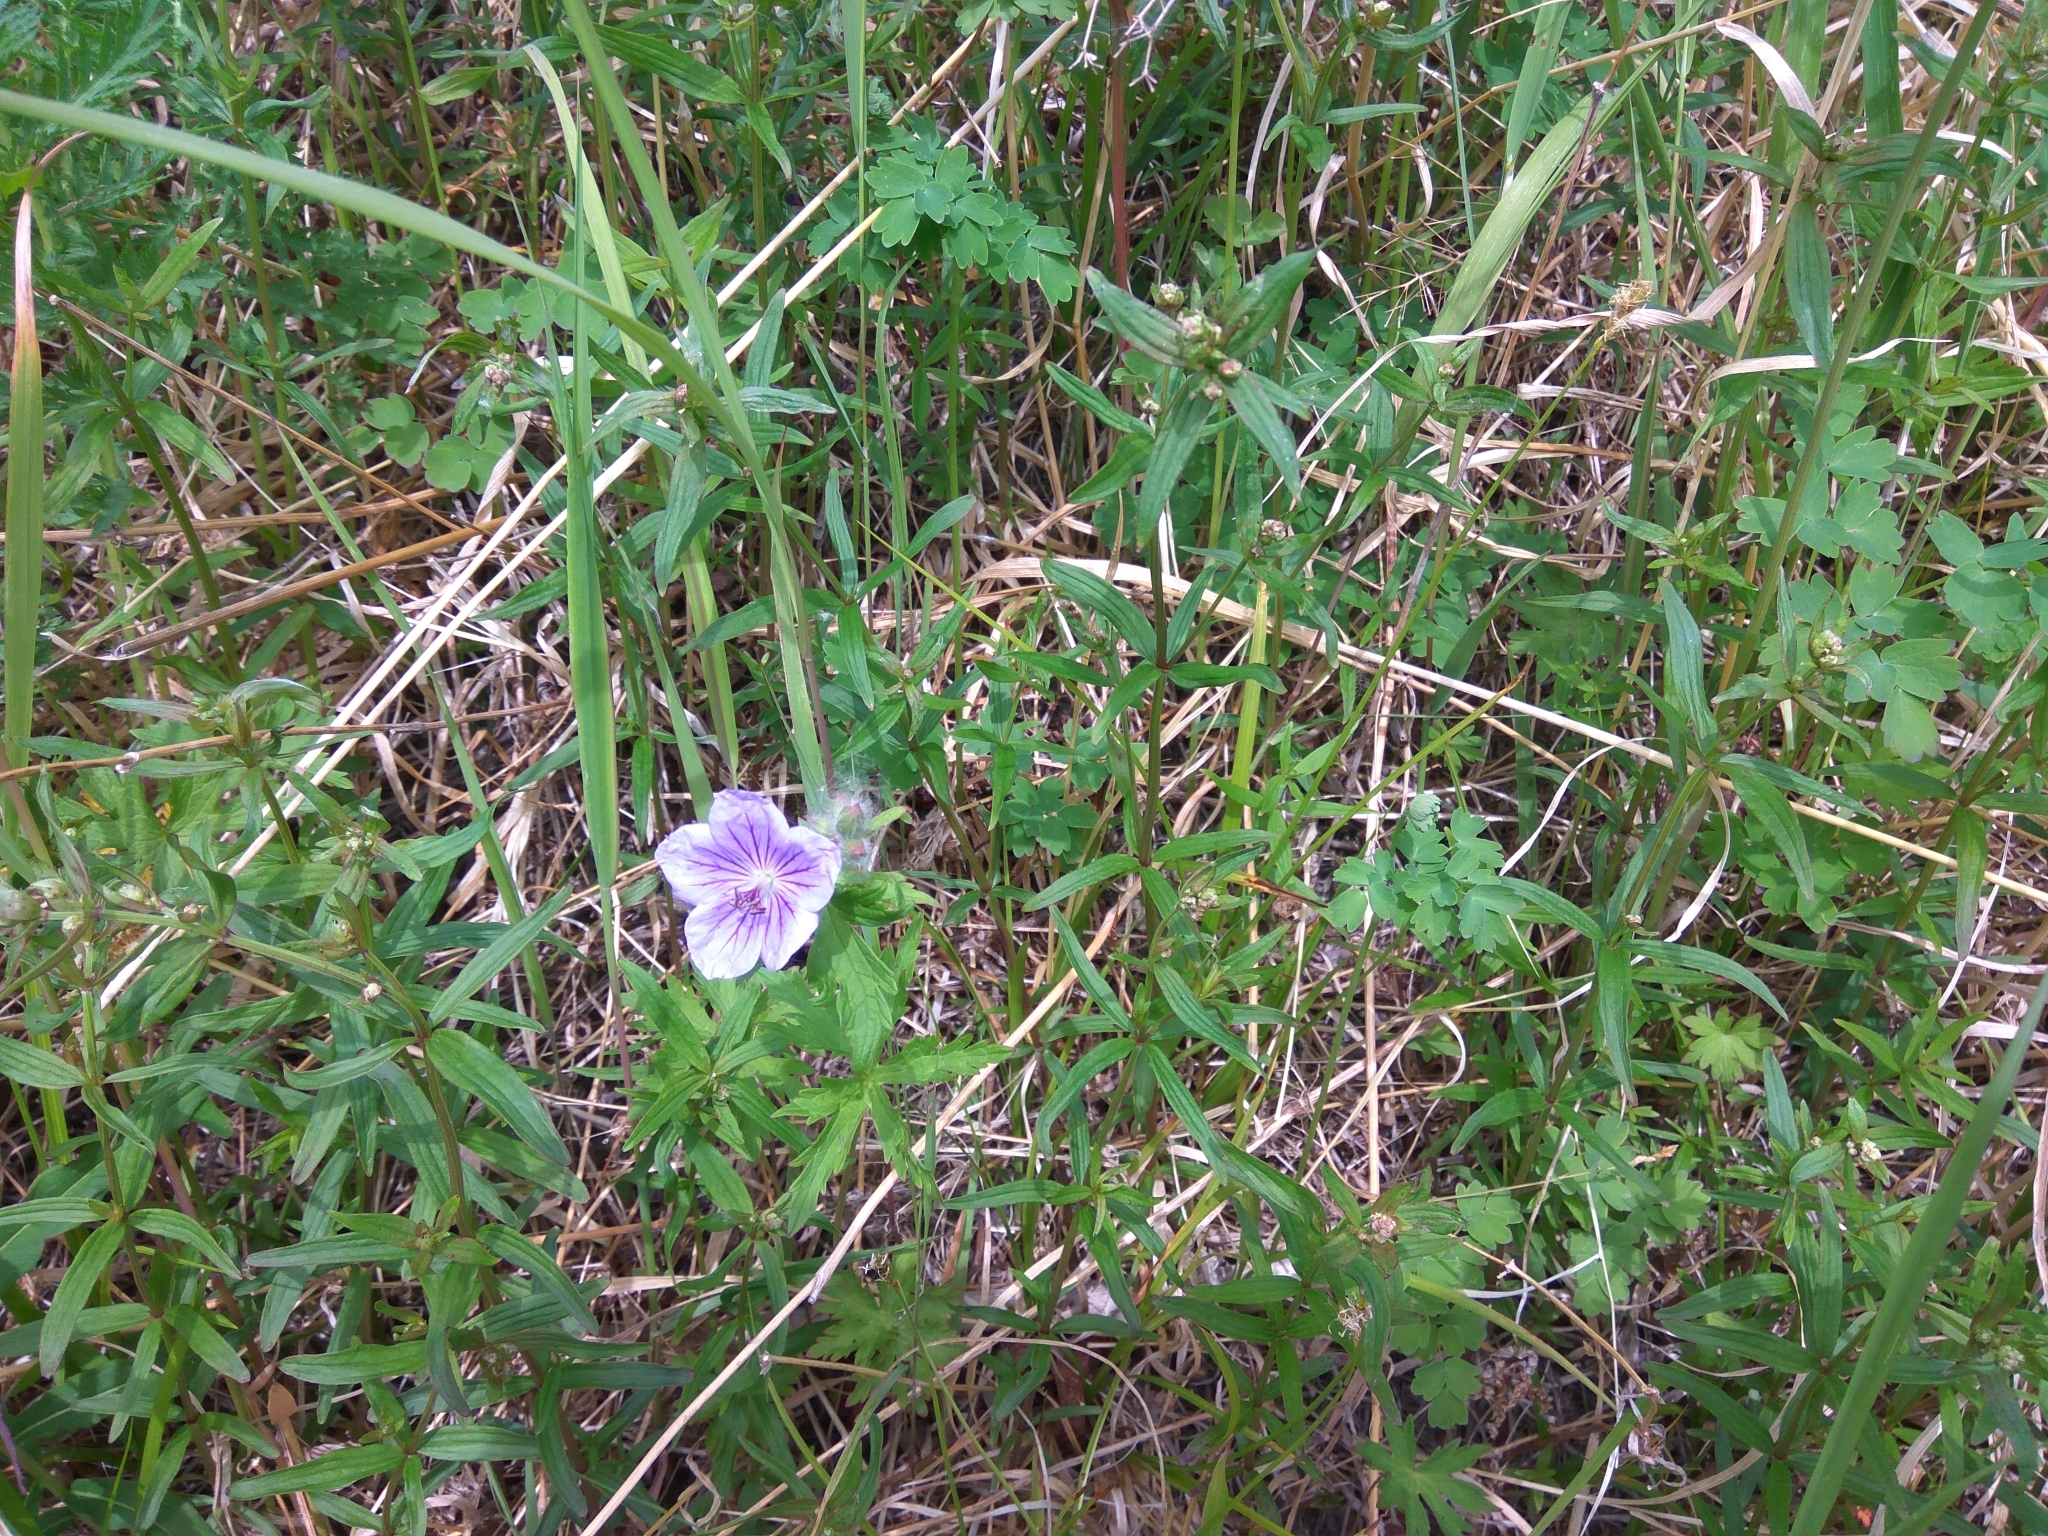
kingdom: Plantae
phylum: Tracheophyta
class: Magnoliopsida
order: Geraniales
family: Geraniaceae
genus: Geranium
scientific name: Geranium erianthum
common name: Northern crane's-bill
